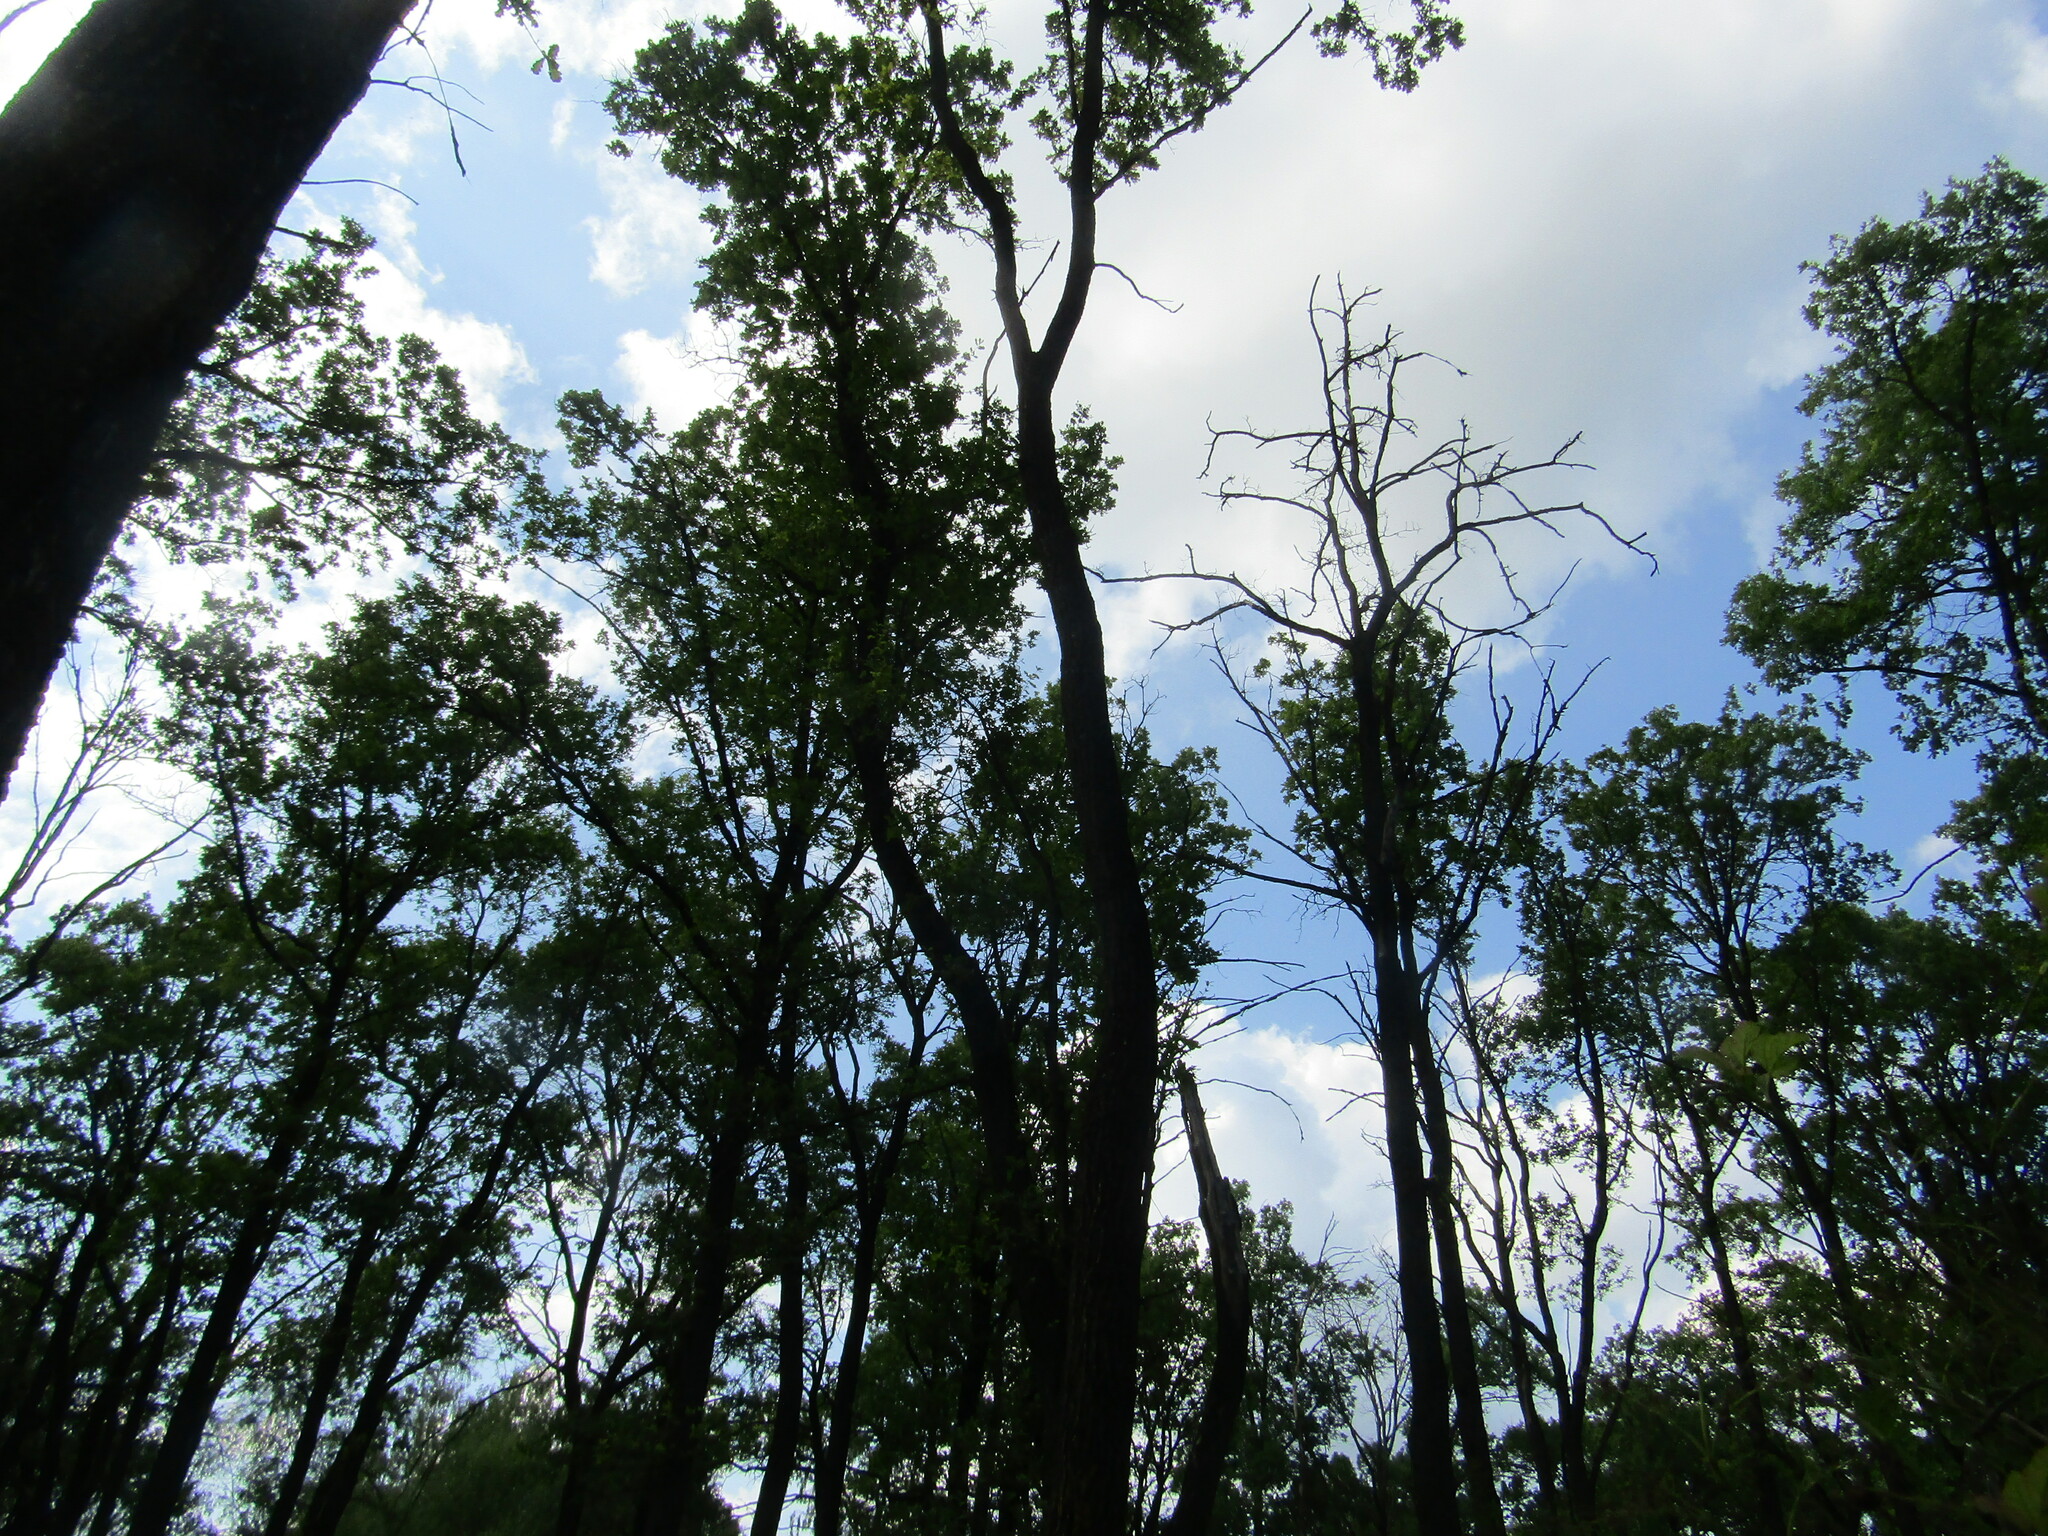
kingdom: Plantae
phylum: Tracheophyta
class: Magnoliopsida
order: Fagales
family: Fagaceae
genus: Quercus
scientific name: Quercus robur
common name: Pedunculate oak
